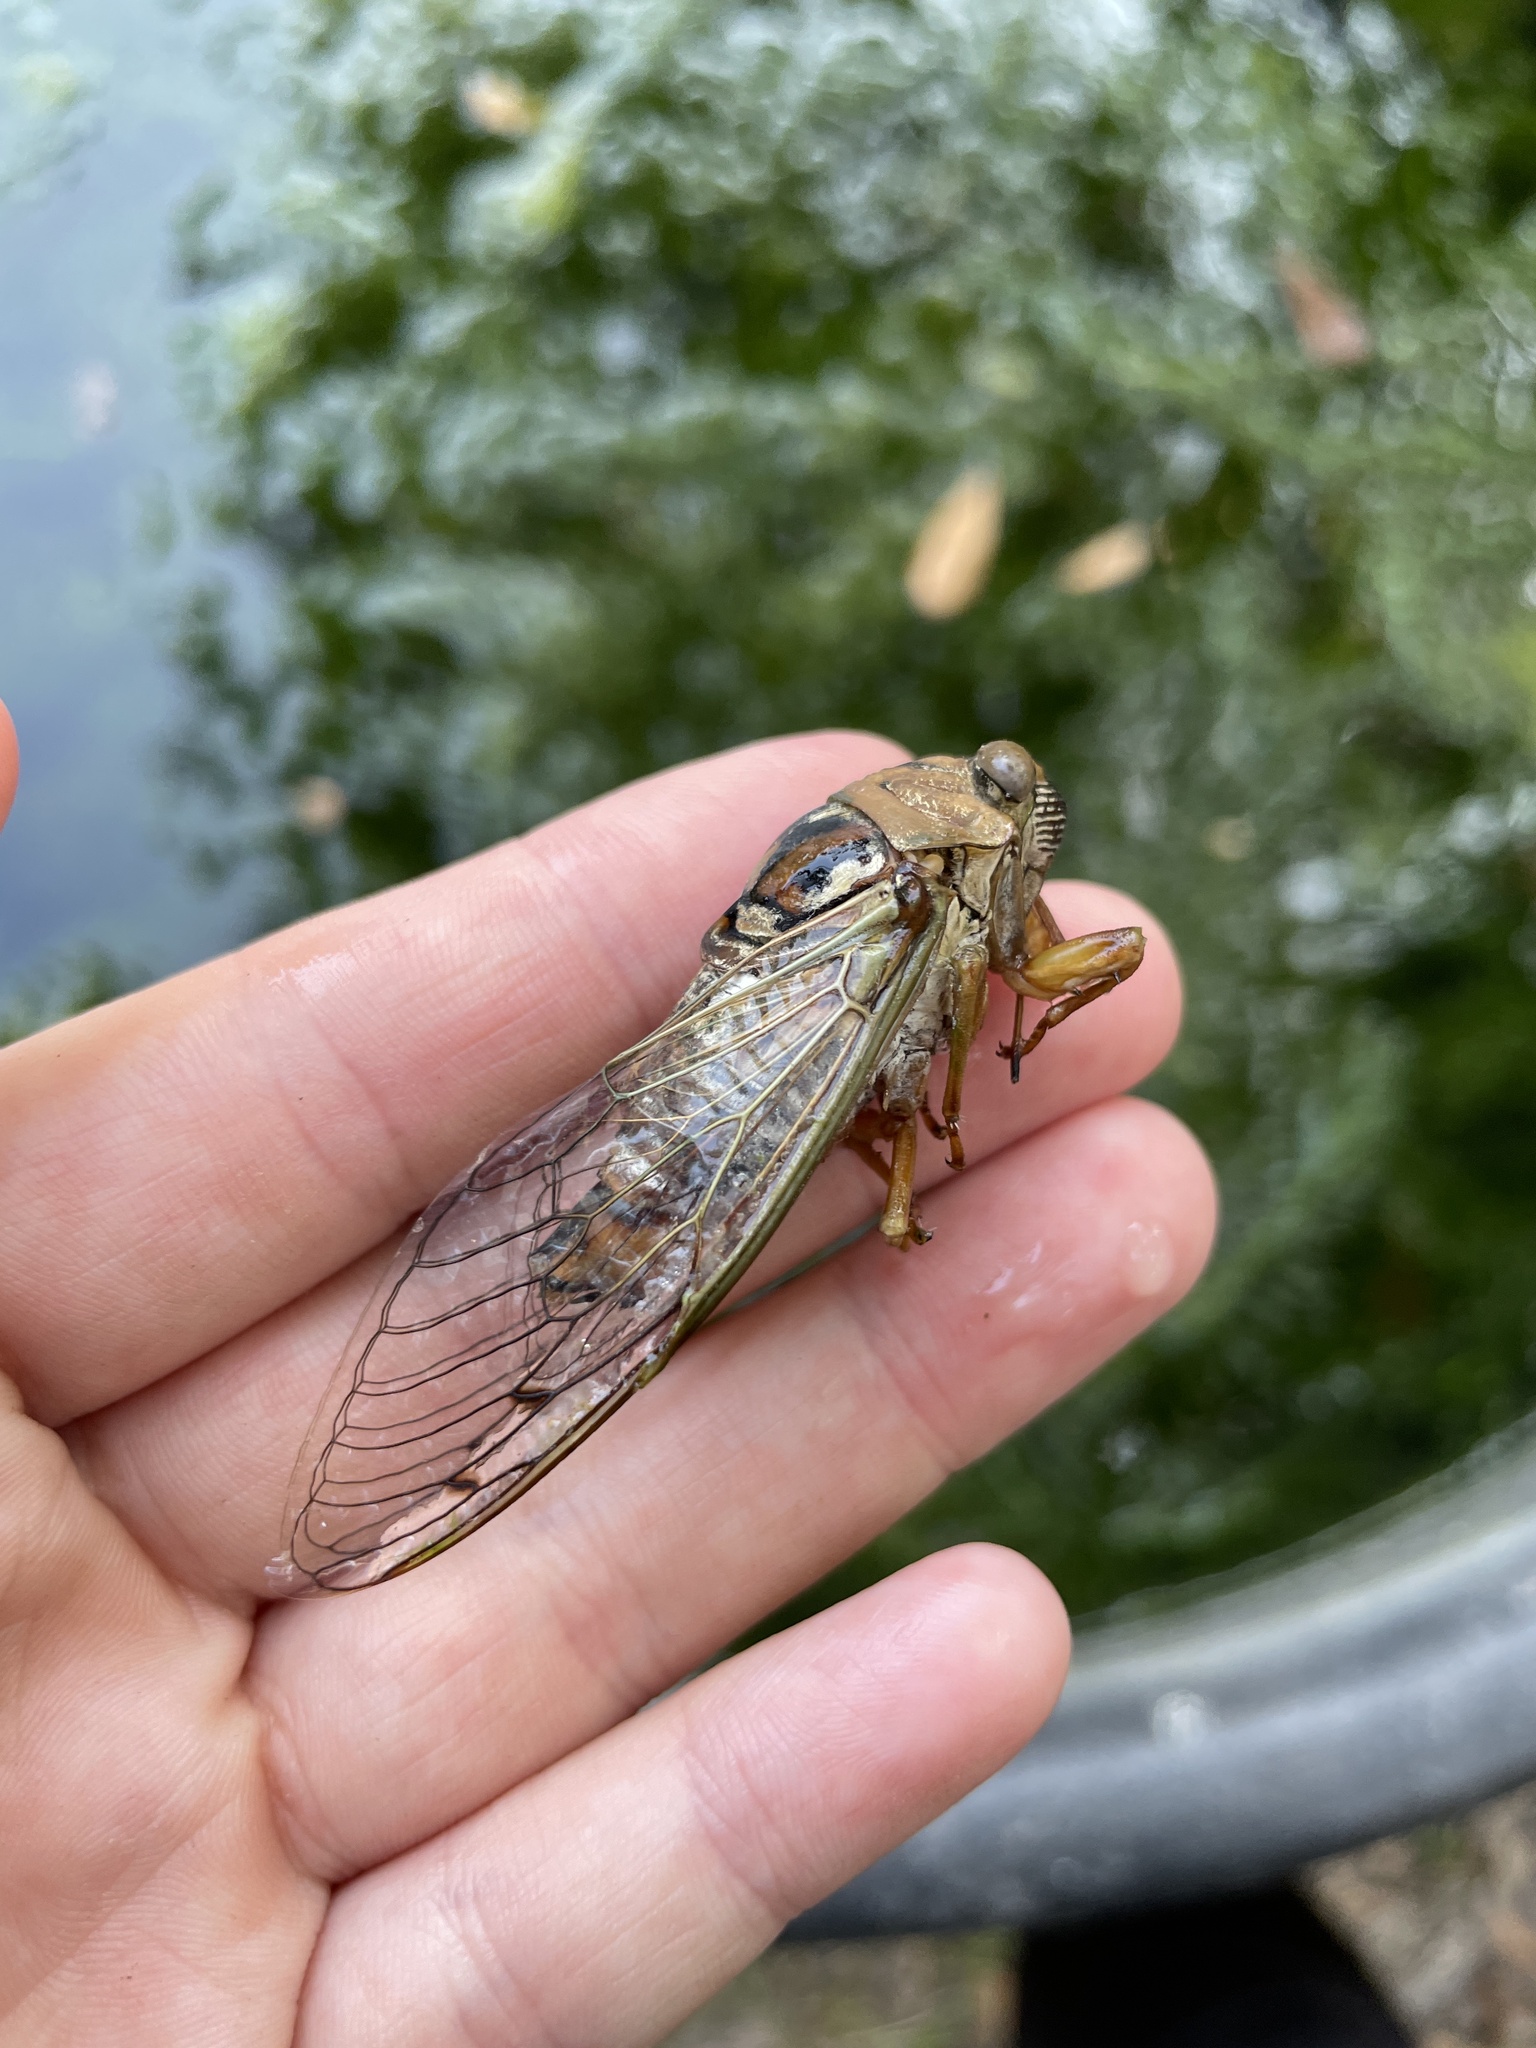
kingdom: Animalia
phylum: Arthropoda
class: Insecta
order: Hemiptera
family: Cicadidae
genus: Megatibicen
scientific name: Megatibicen resh
